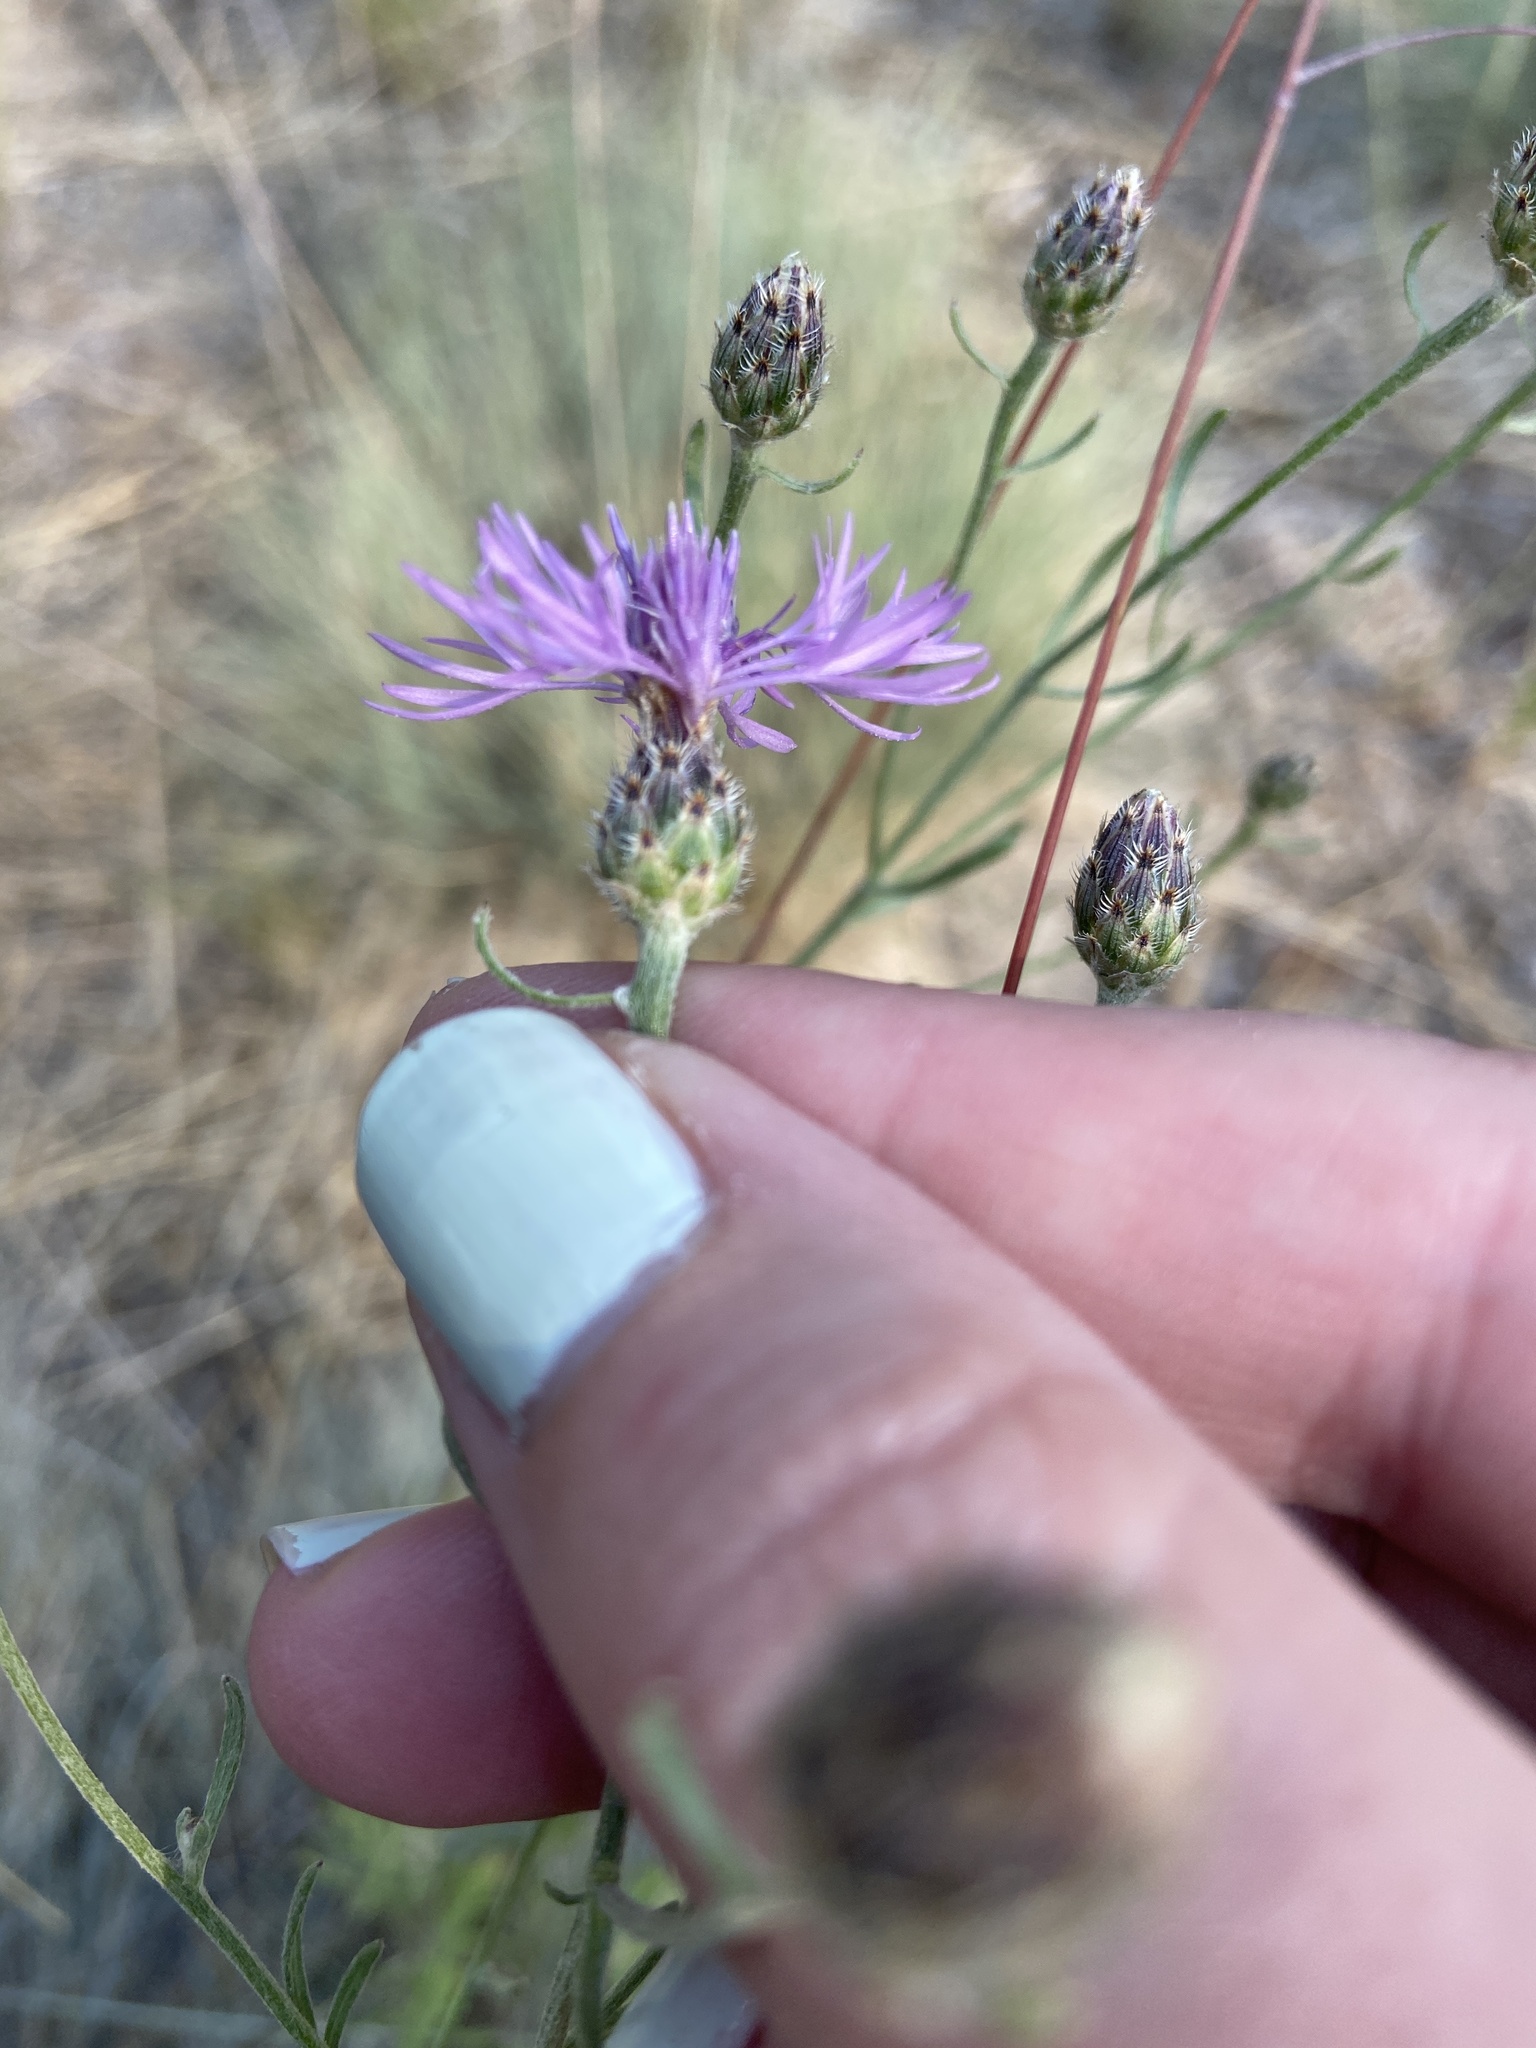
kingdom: Plantae
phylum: Tracheophyta
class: Magnoliopsida
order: Asterales
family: Asteraceae
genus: Centaurea
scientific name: Centaurea stoebe
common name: Spotted knapweed
